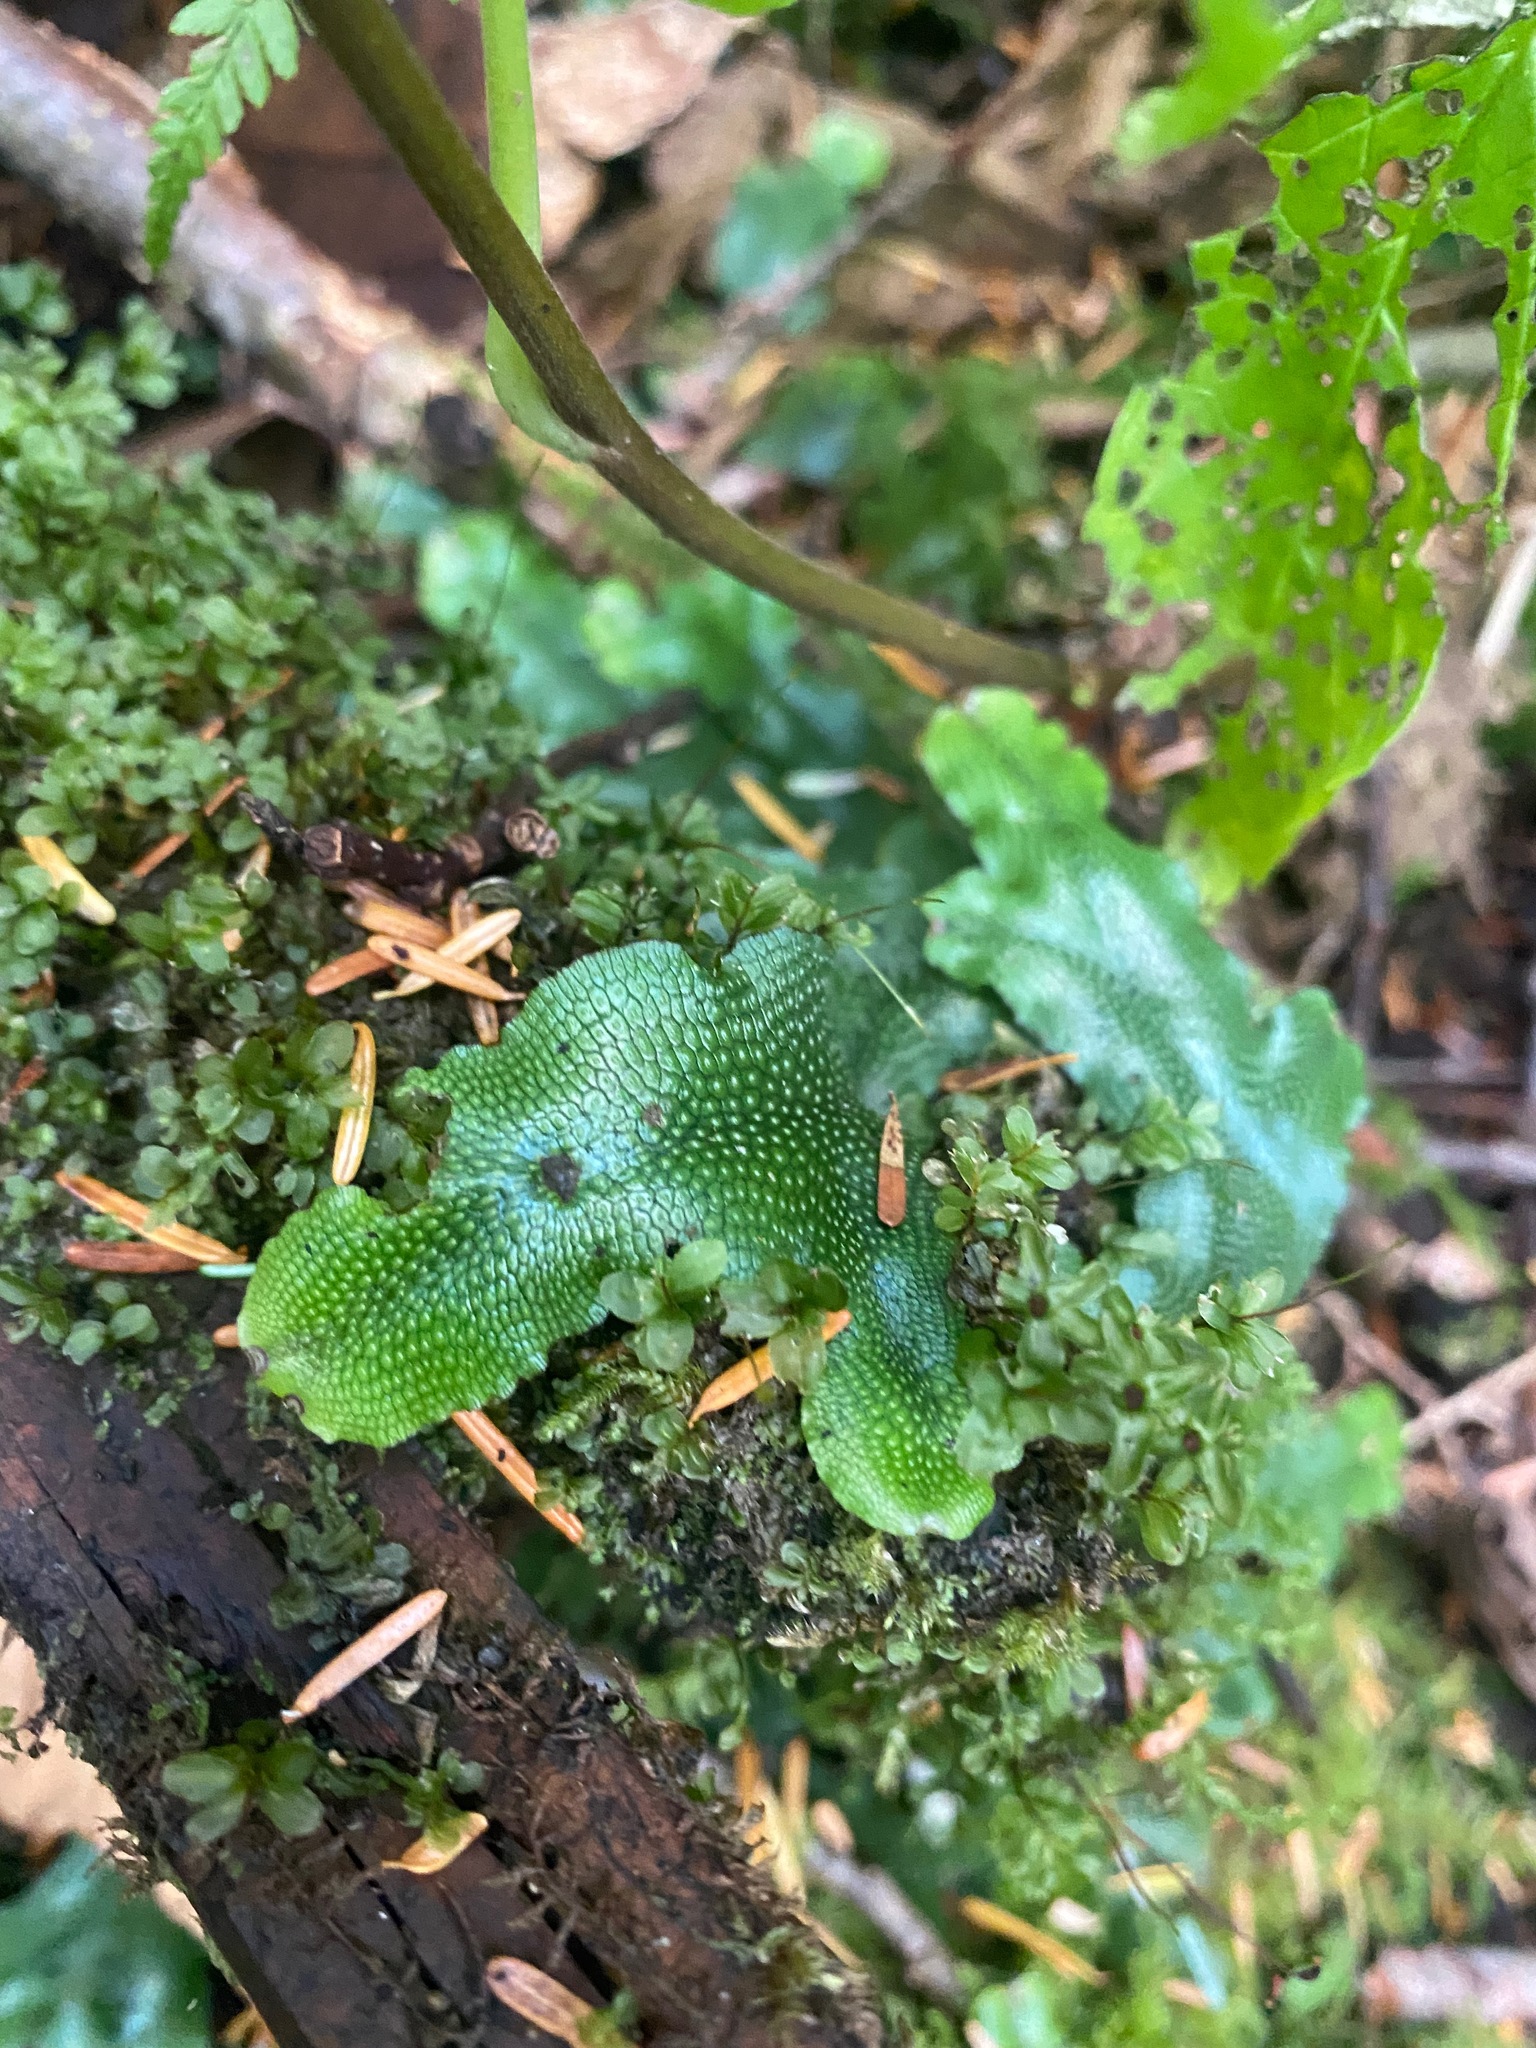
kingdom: Plantae
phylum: Marchantiophyta
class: Marchantiopsida
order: Marchantiales
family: Conocephalaceae
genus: Conocephalum
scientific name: Conocephalum salebrosum
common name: Cat-tongue liverwort
